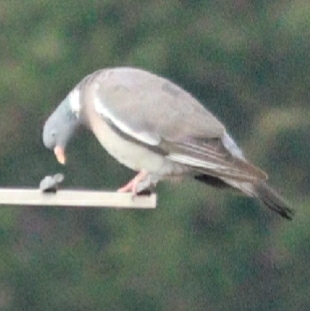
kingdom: Animalia
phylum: Chordata
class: Aves
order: Columbiformes
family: Columbidae
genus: Columba
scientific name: Columba palumbus
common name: Common wood pigeon
